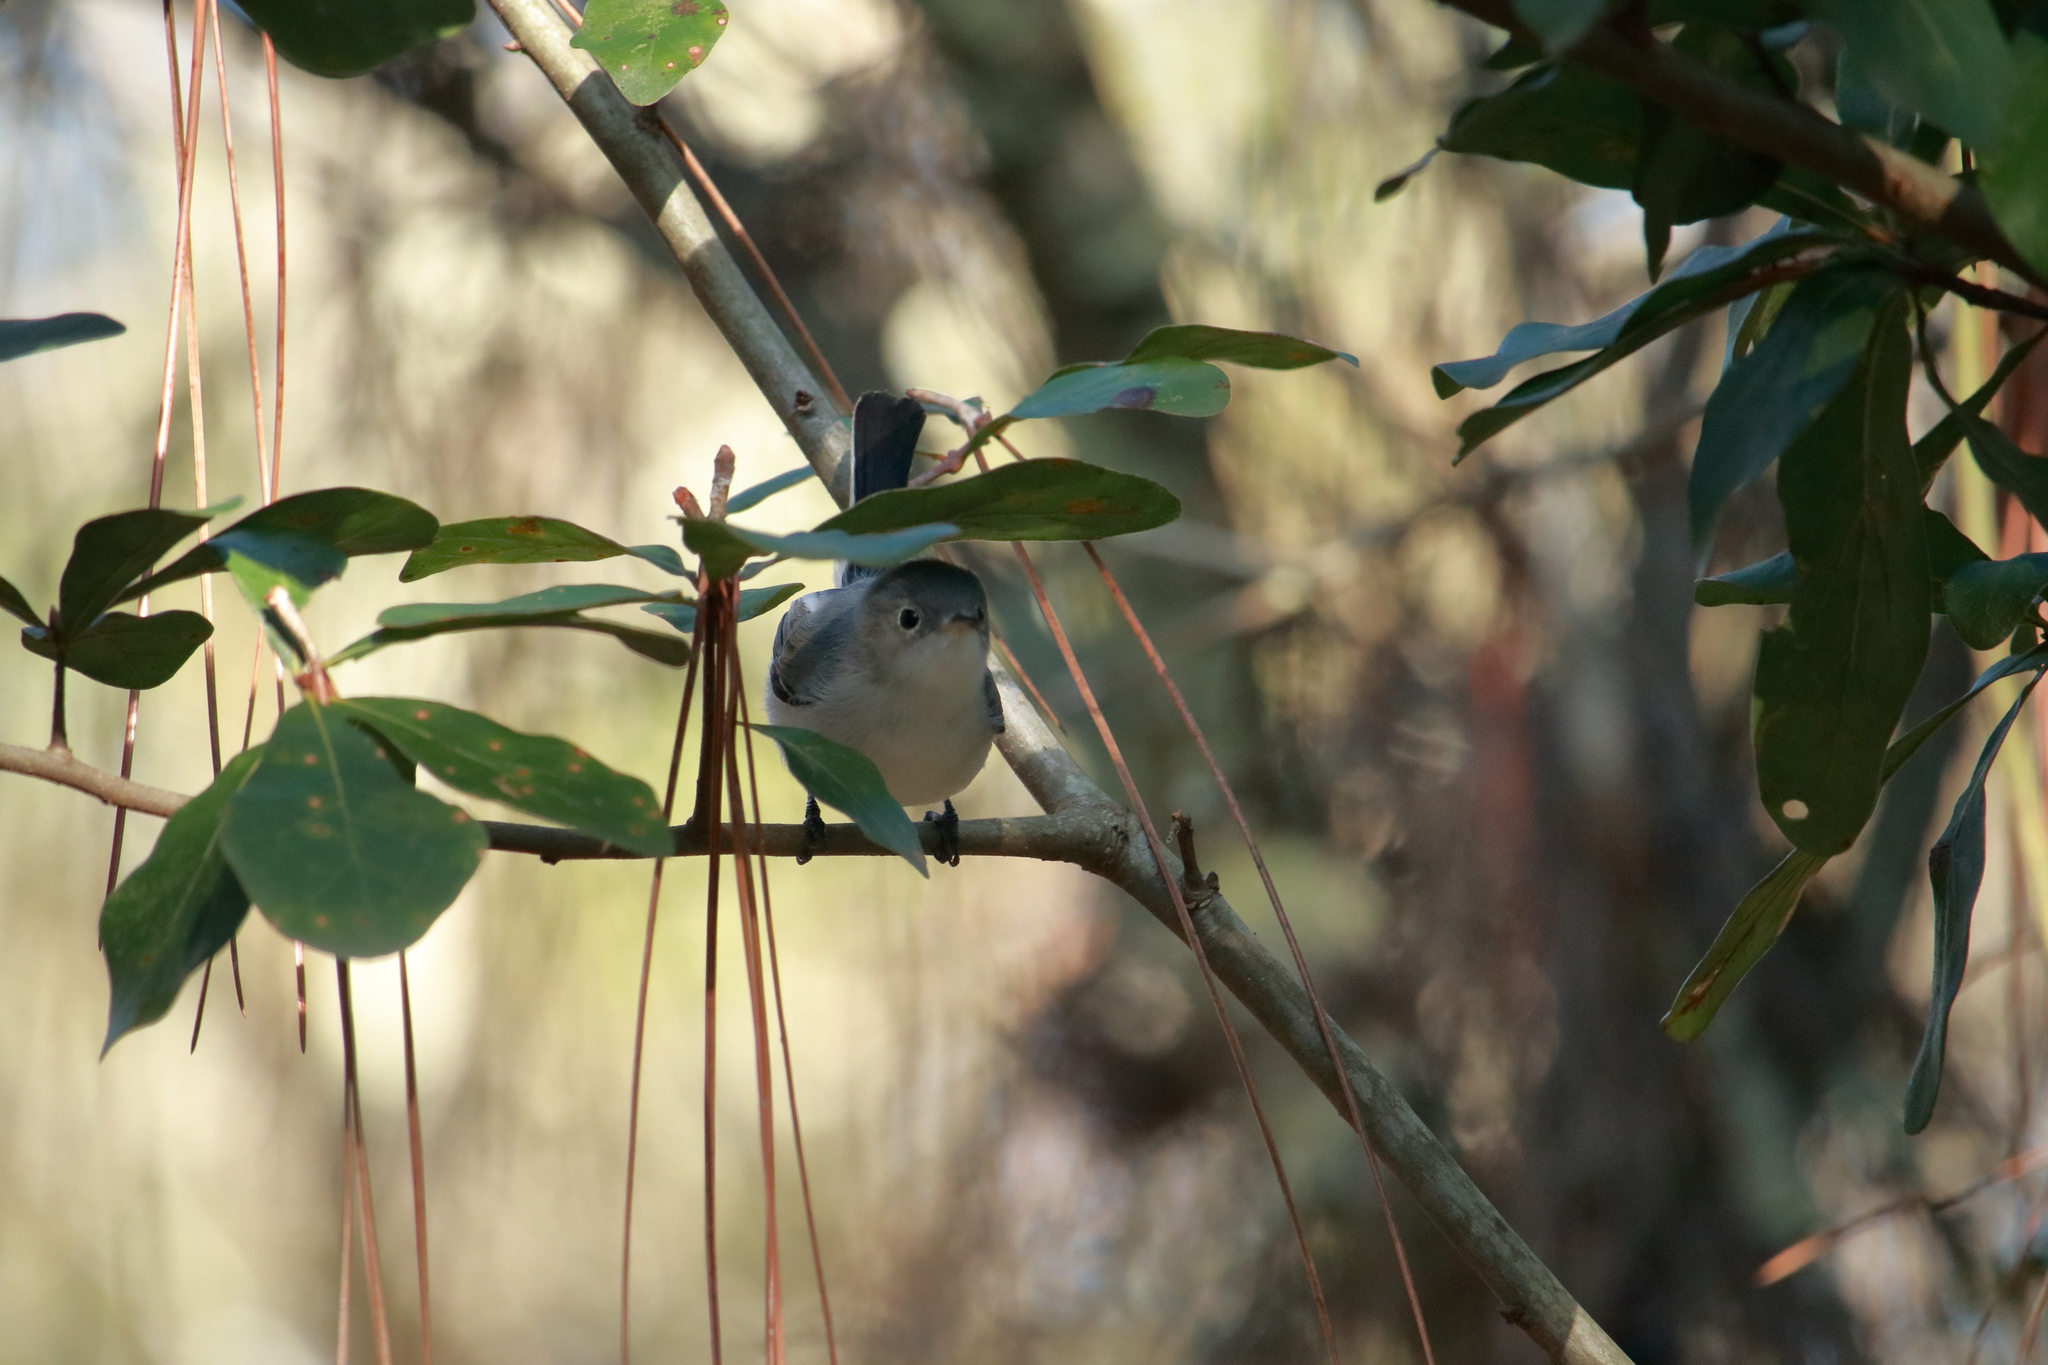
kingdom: Animalia
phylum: Chordata
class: Aves
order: Passeriformes
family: Polioptilidae
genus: Polioptila
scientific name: Polioptila caerulea
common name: Blue-gray gnatcatcher
